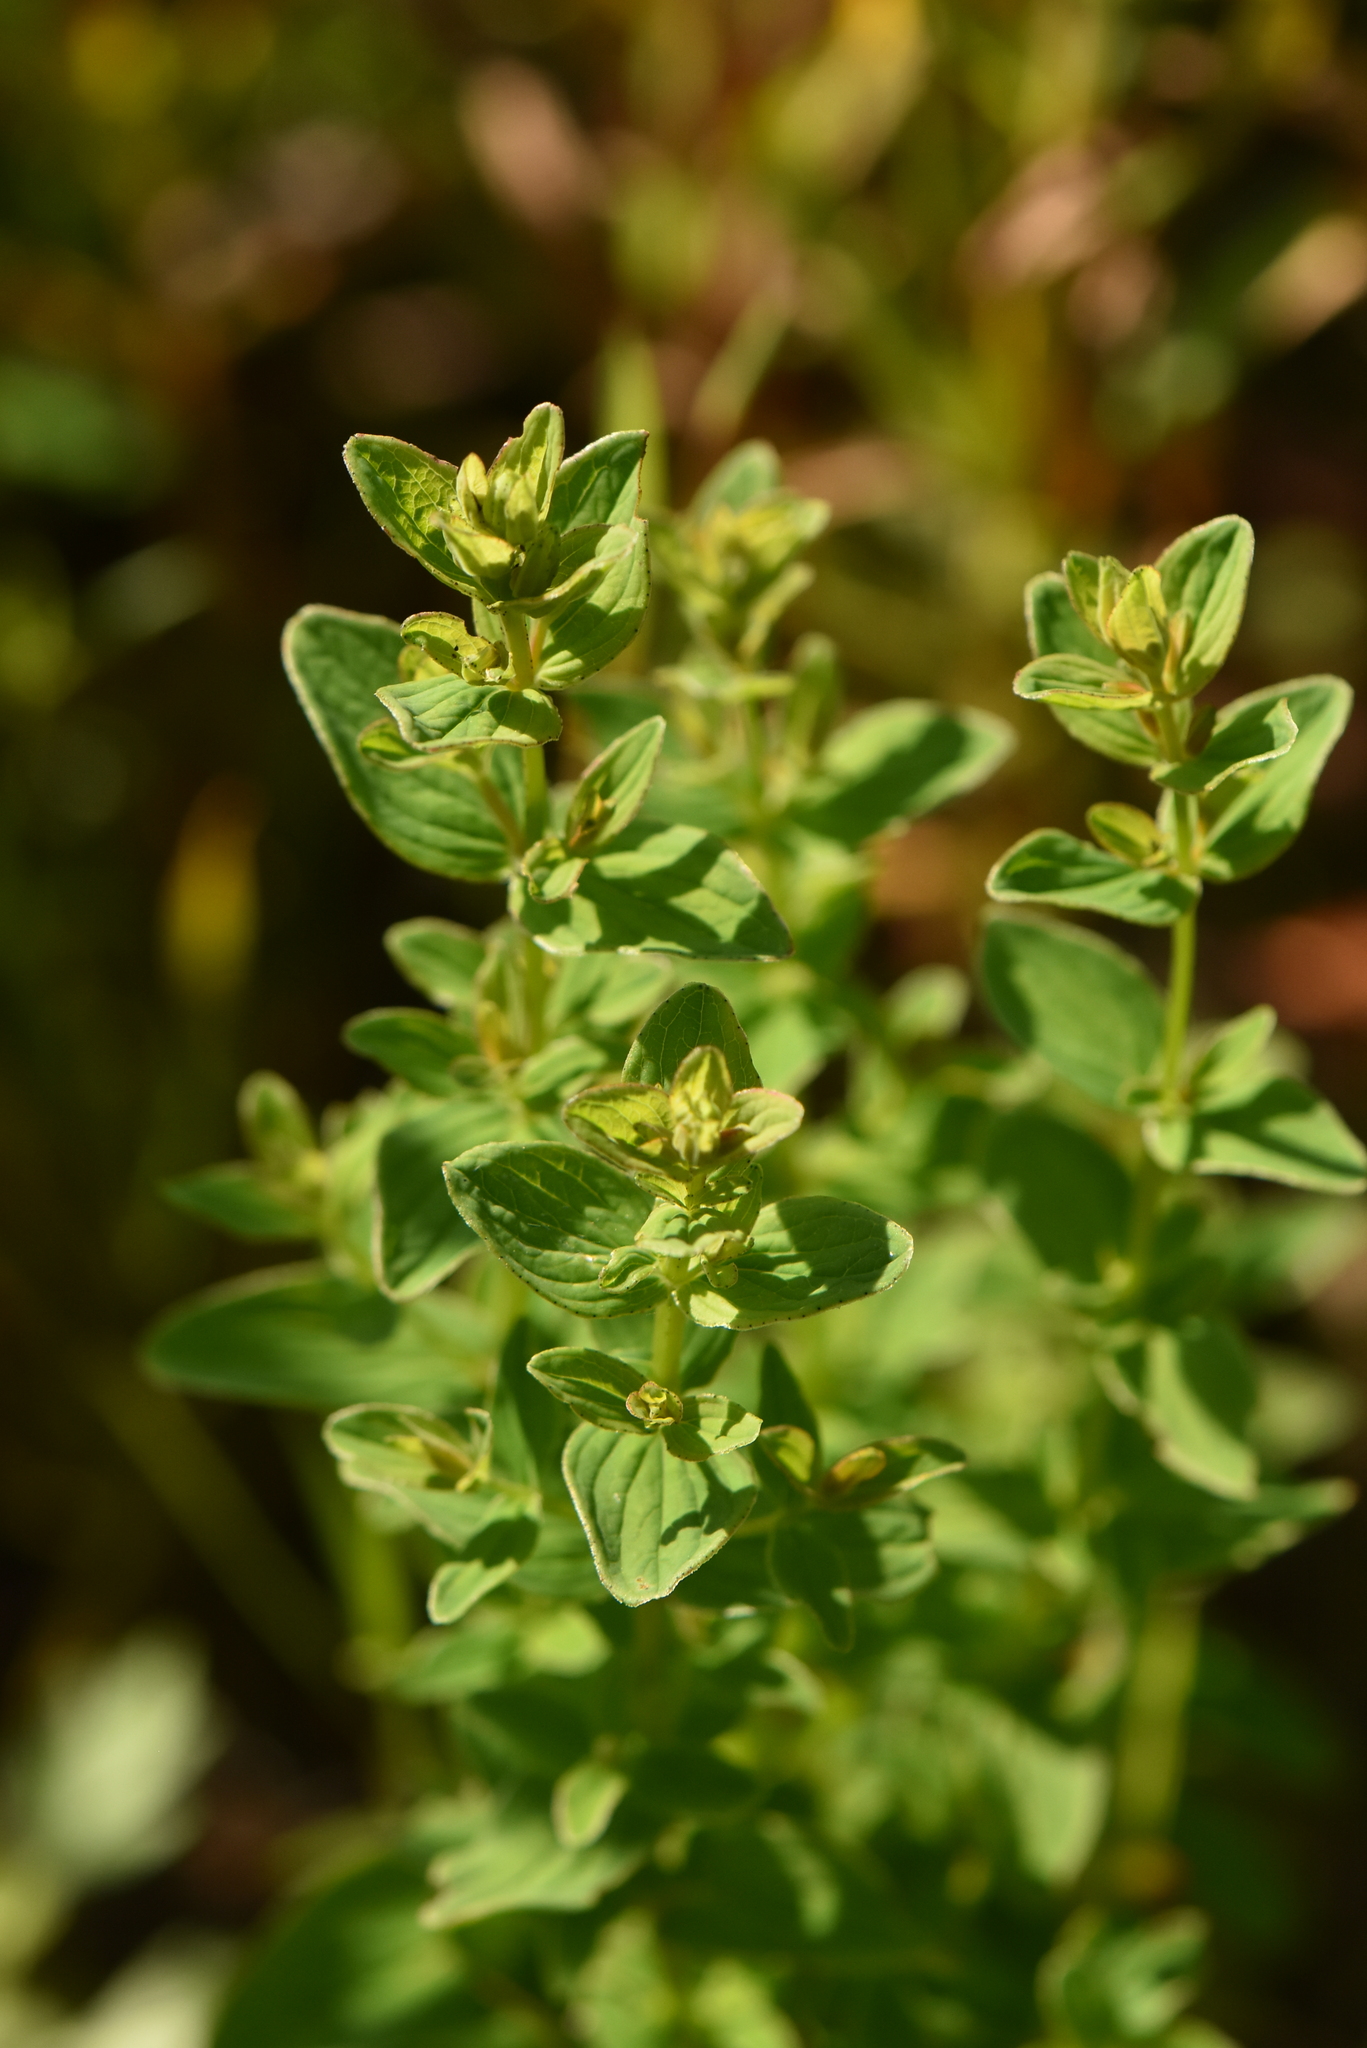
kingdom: Plantae
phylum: Tracheophyta
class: Magnoliopsida
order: Malpighiales
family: Hypericaceae
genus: Hypericum
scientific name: Hypericum maculatum
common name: Imperforate st. john's-wort
